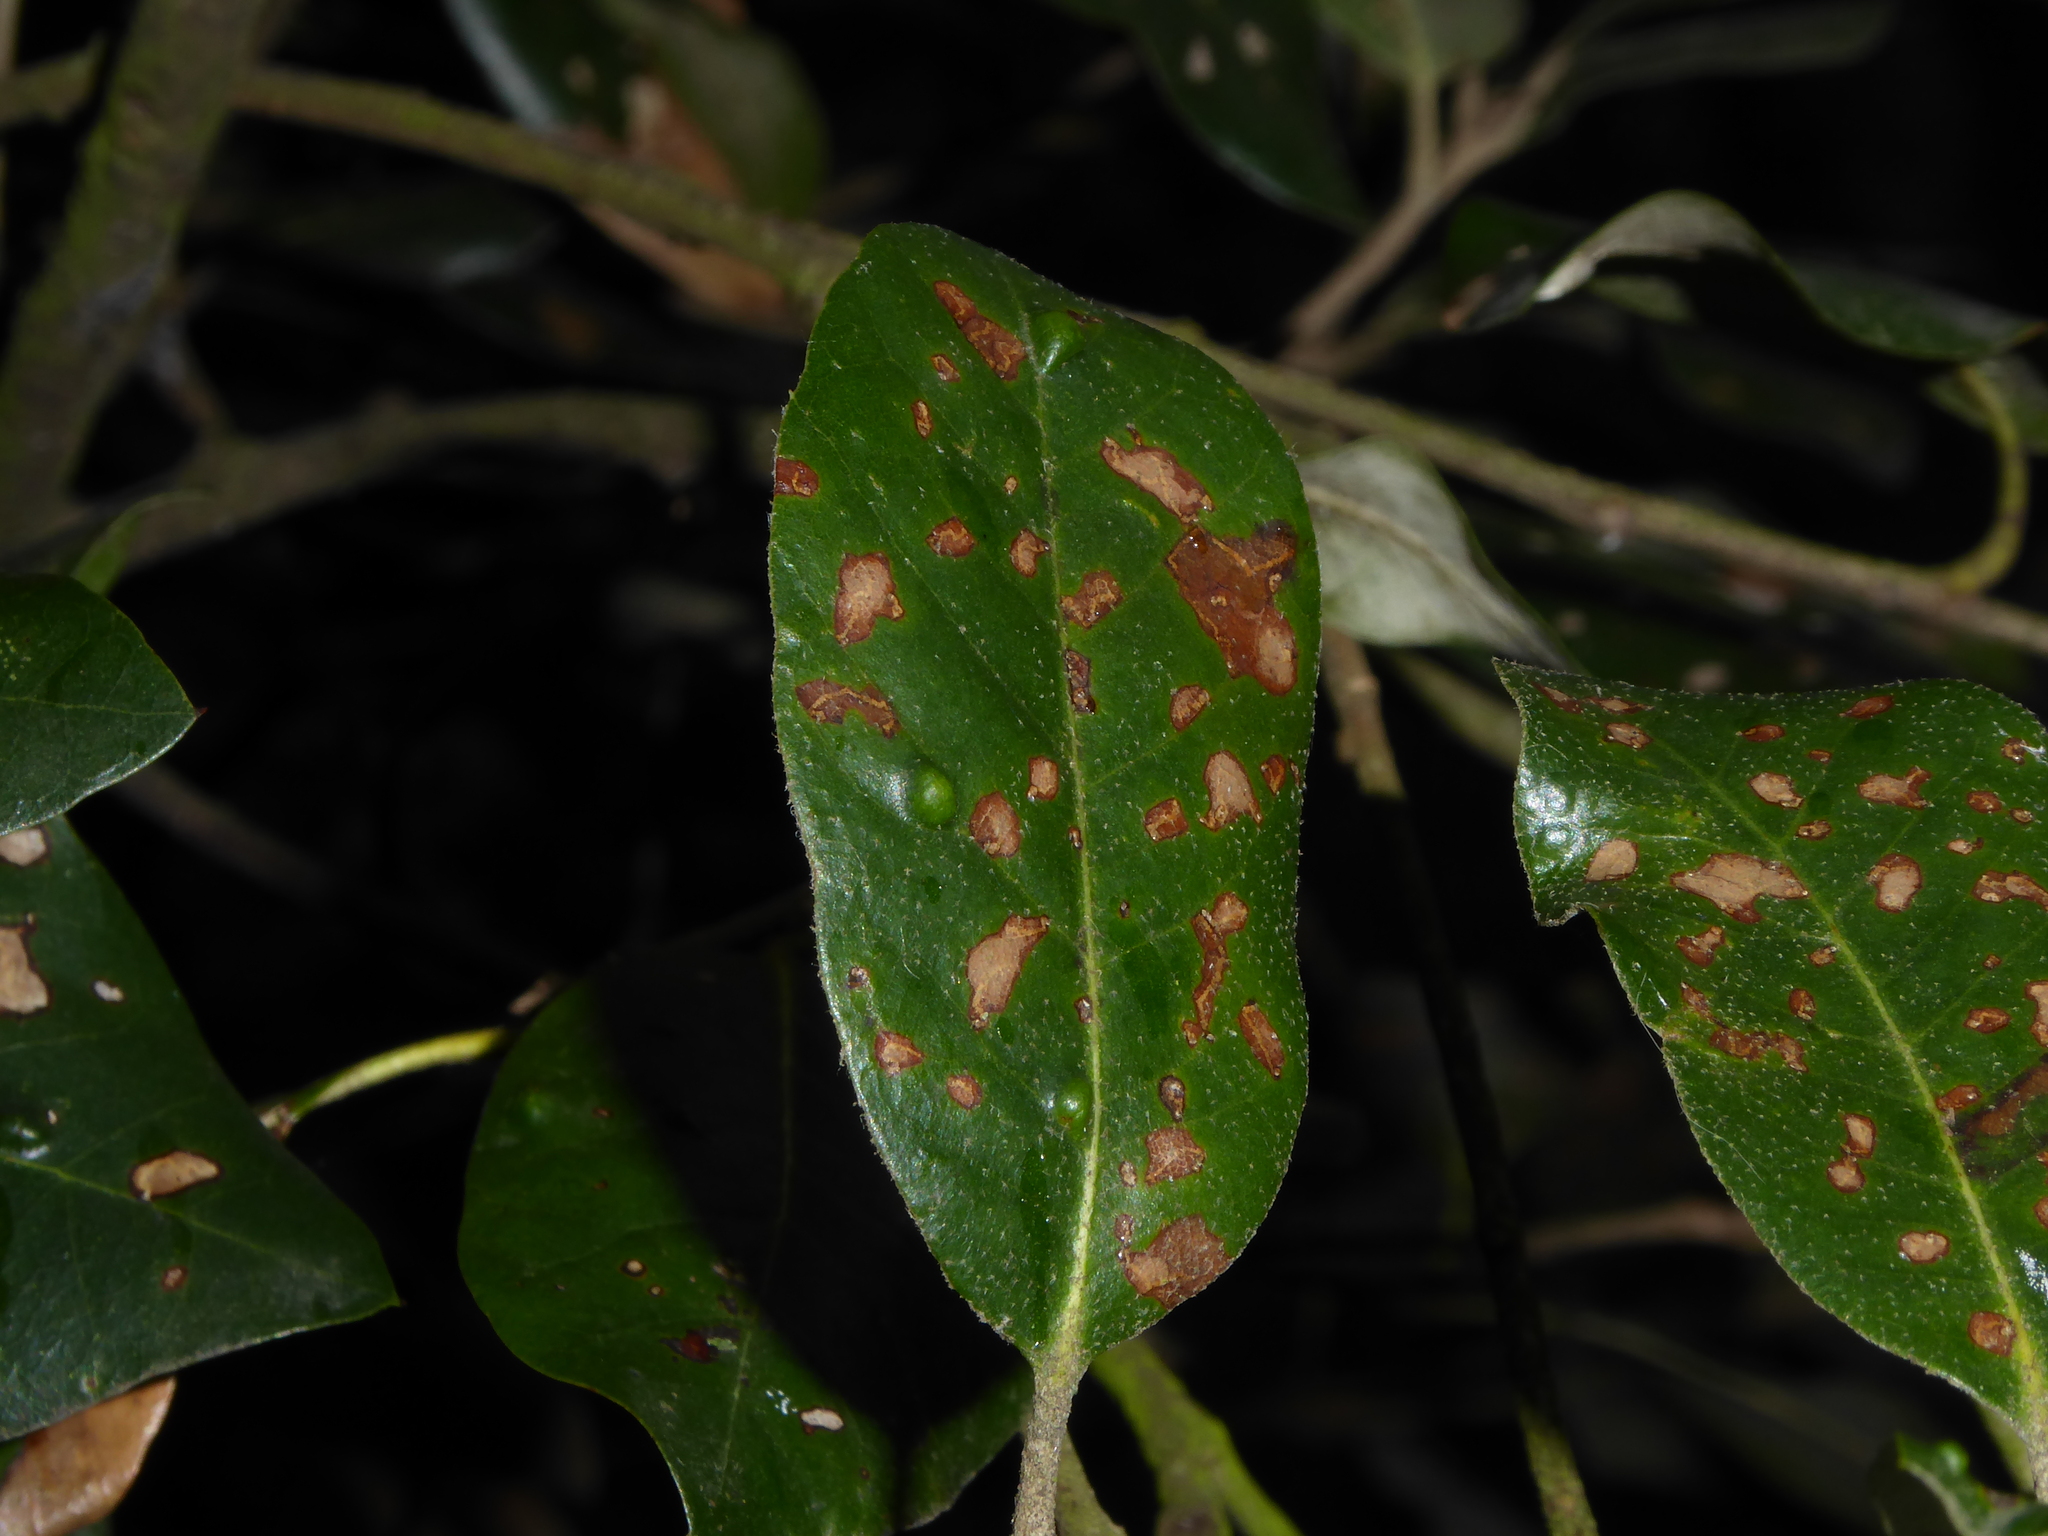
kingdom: Animalia
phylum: Arthropoda
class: Arachnida
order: Trombidiformes
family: Eriophyidae
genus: Aceria
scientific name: Aceria ilicis
